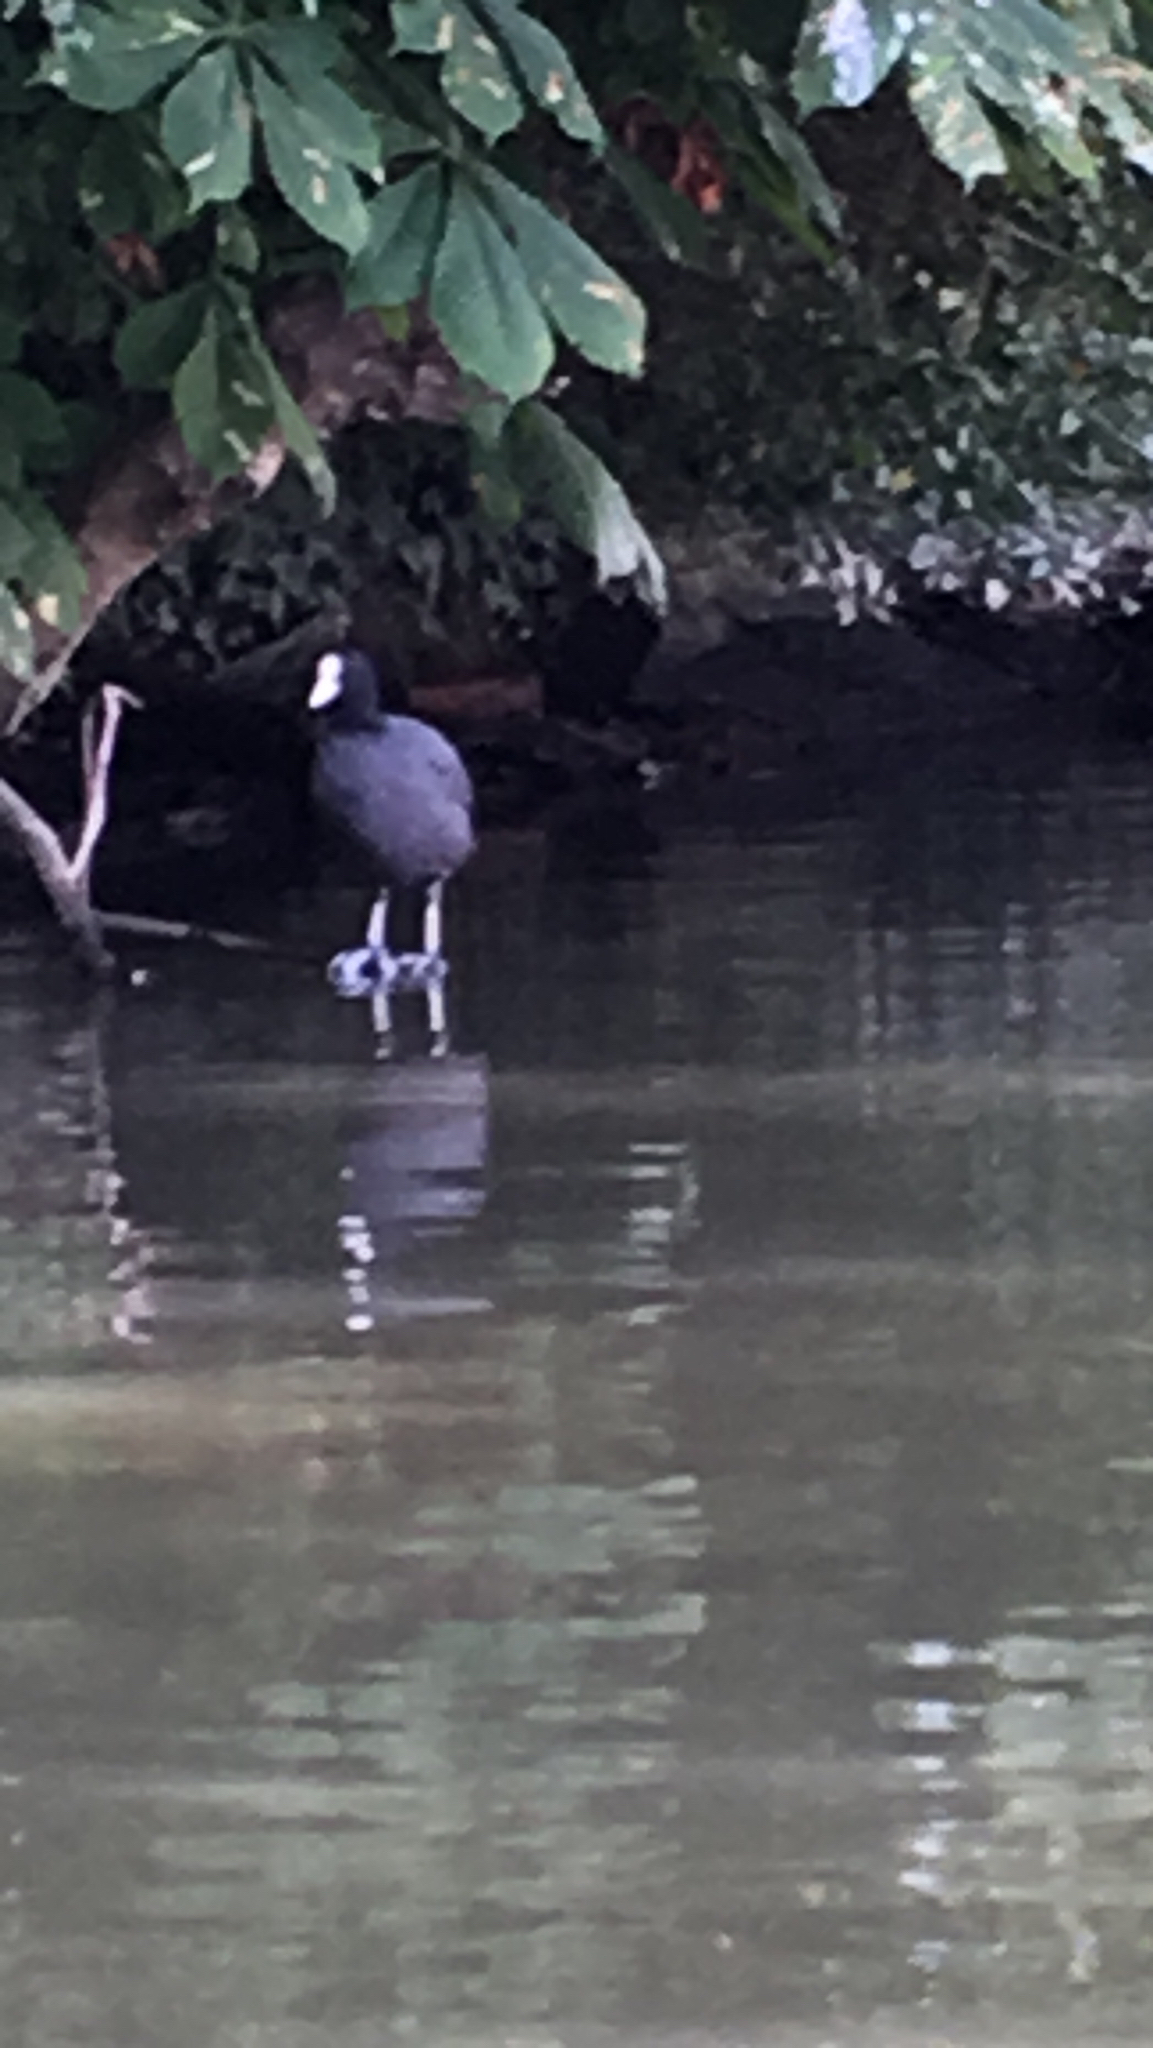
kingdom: Animalia
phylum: Chordata
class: Aves
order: Gruiformes
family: Rallidae
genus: Fulica
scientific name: Fulica atra
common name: Eurasian coot
